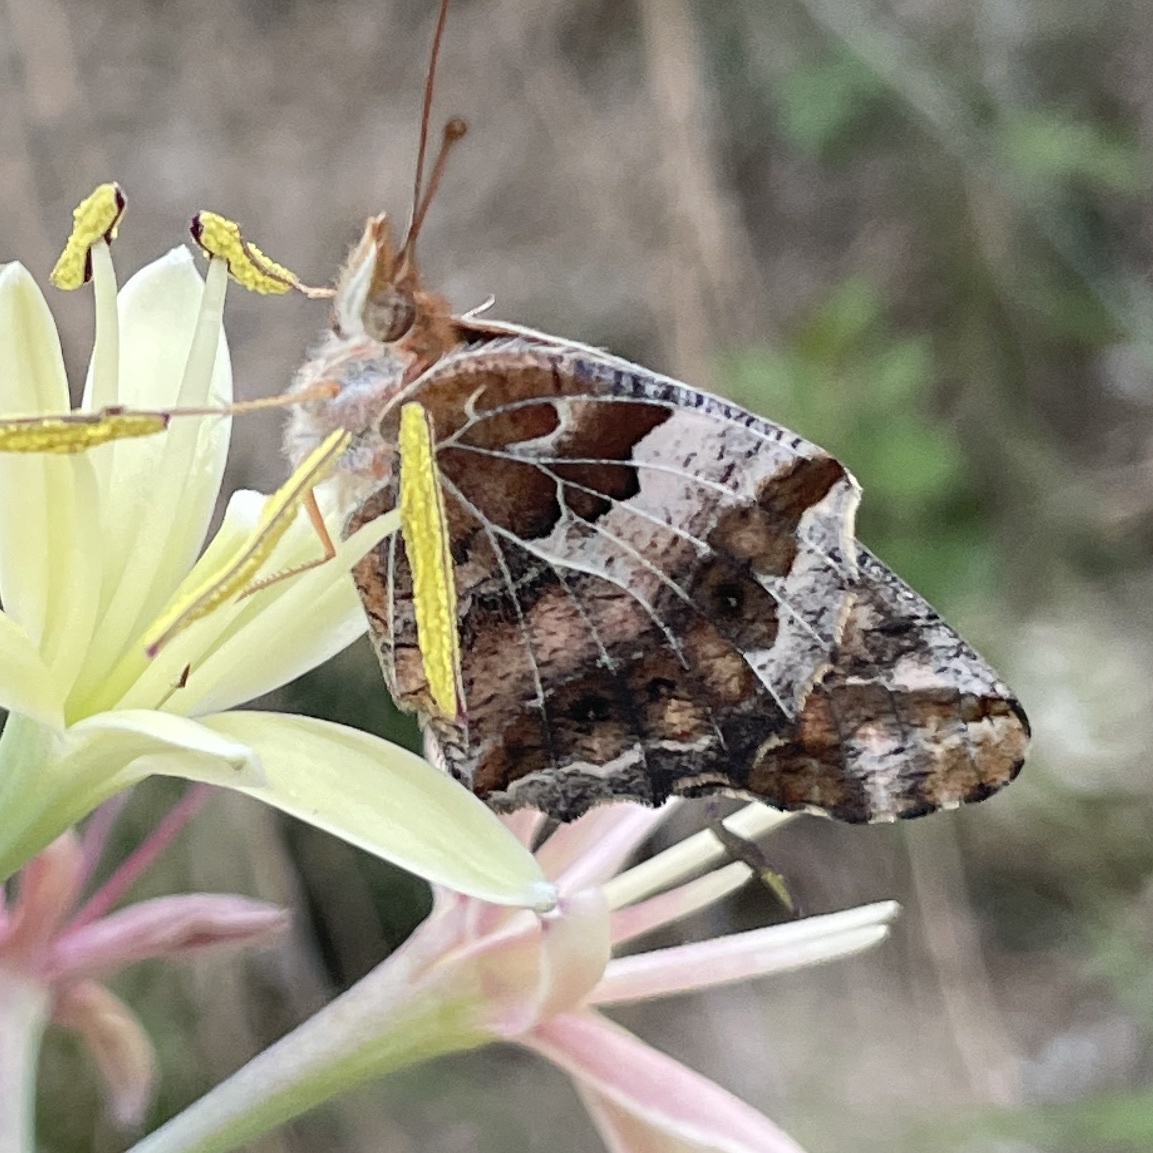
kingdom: Animalia
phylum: Arthropoda
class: Insecta
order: Lepidoptera
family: Nymphalidae
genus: Euptoieta
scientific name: Euptoieta claudia
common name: Variegated fritillary
